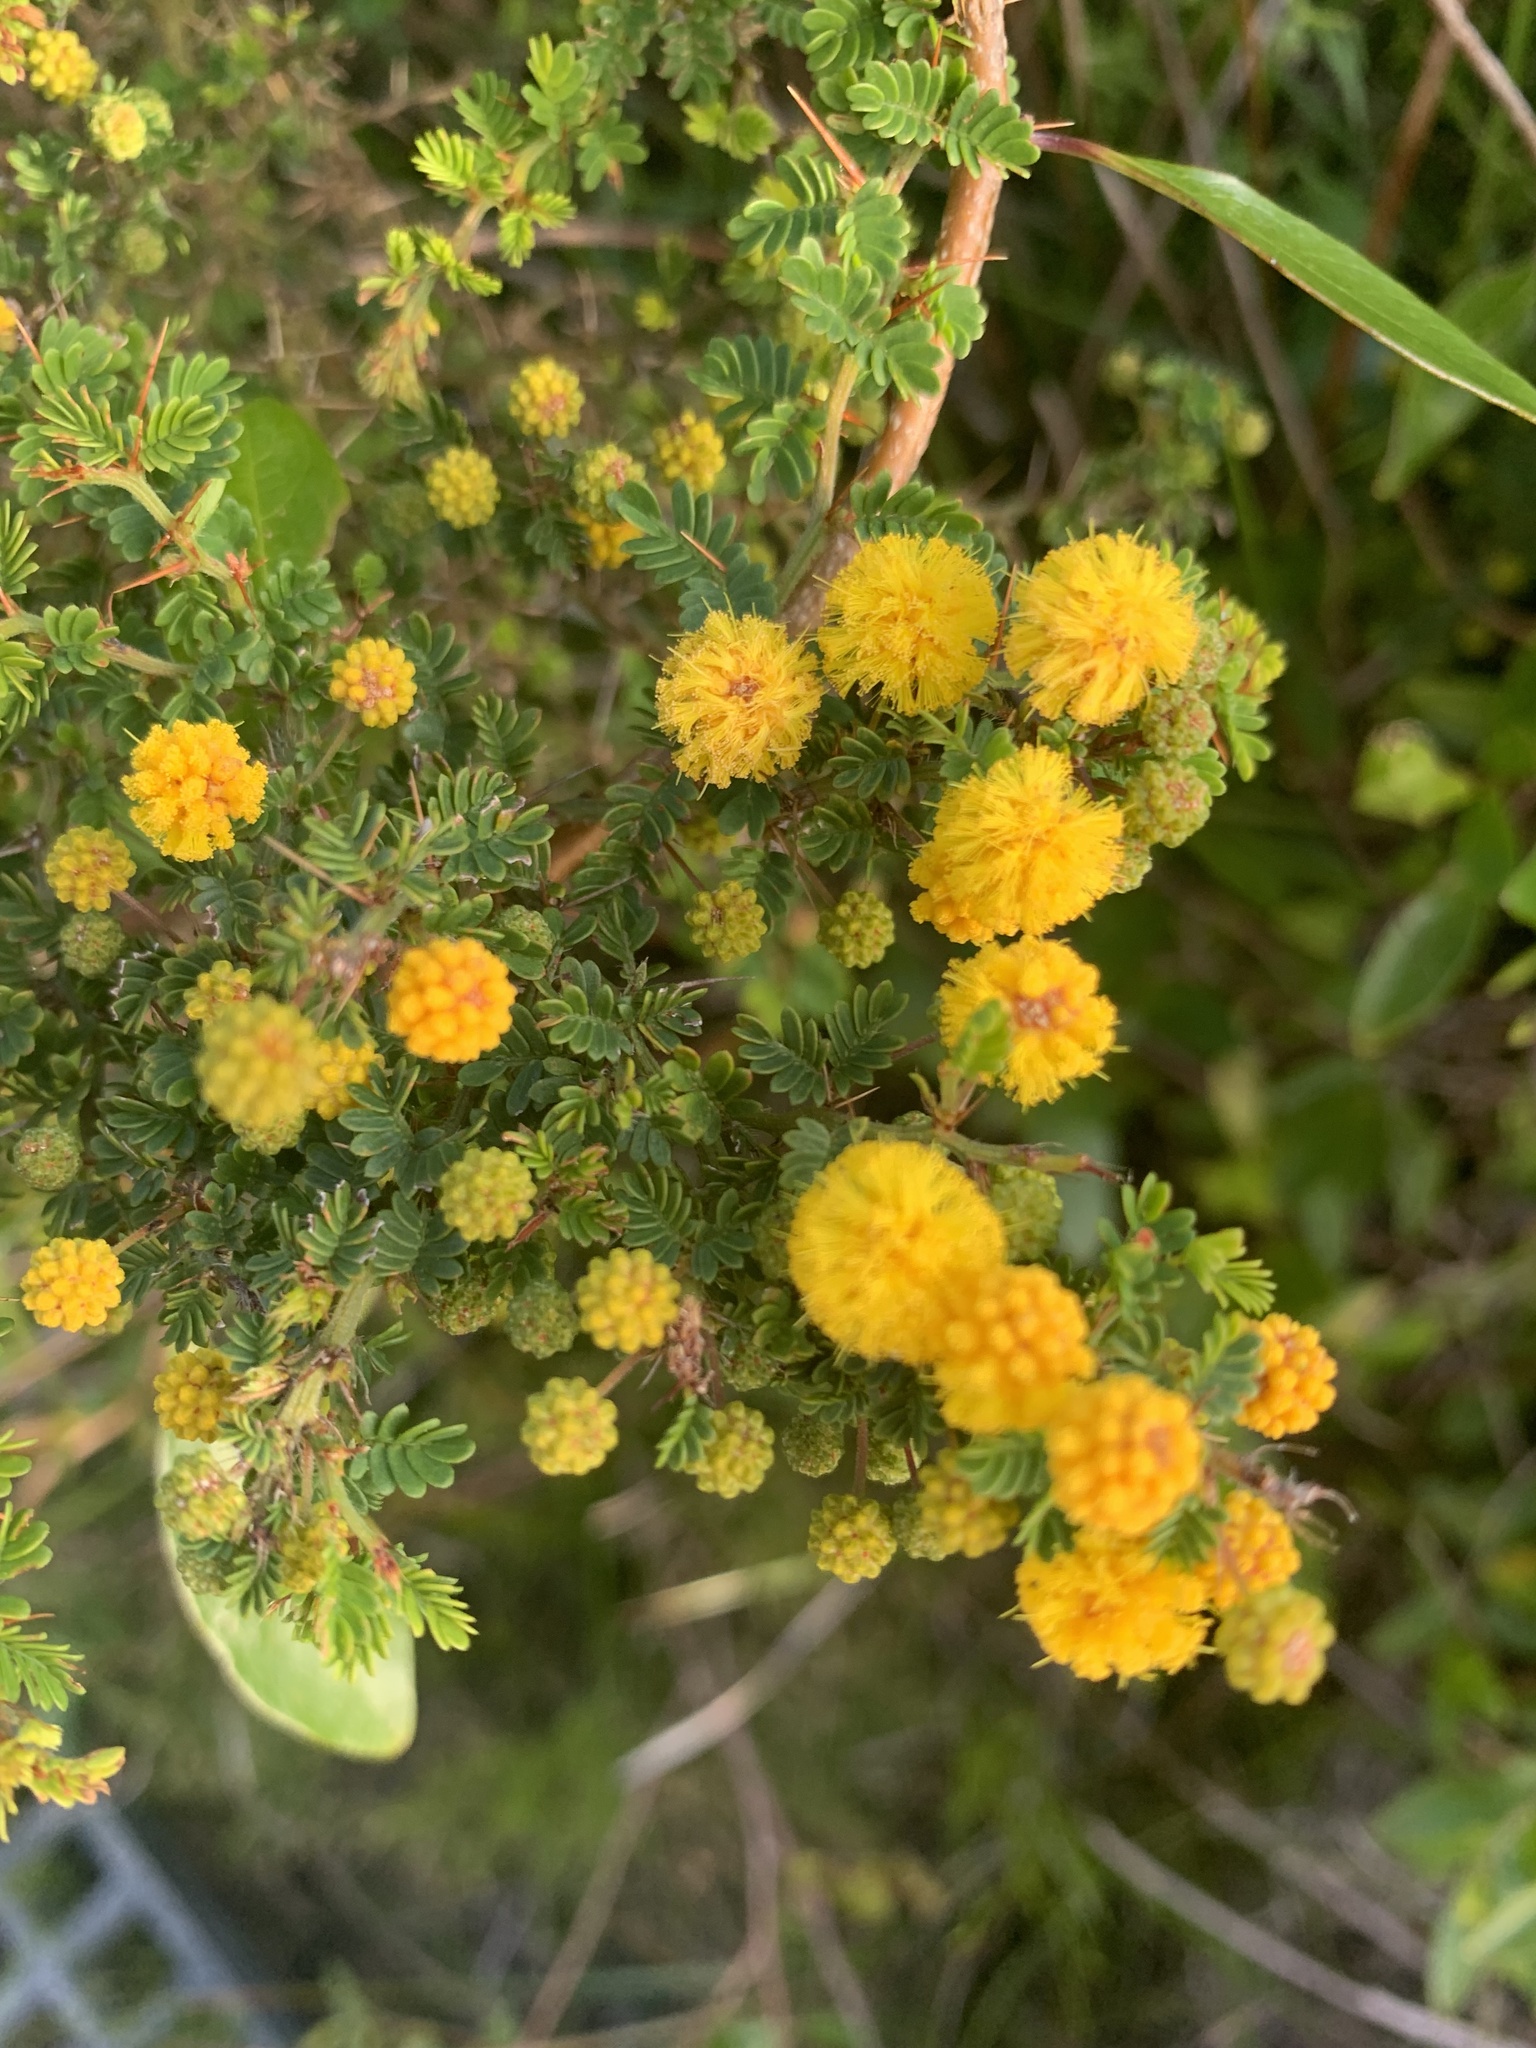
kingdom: Plantae
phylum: Tracheophyta
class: Magnoliopsida
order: Fabales
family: Fabaceae
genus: Acacia
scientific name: Acacia pulchella
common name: Prickly moses
